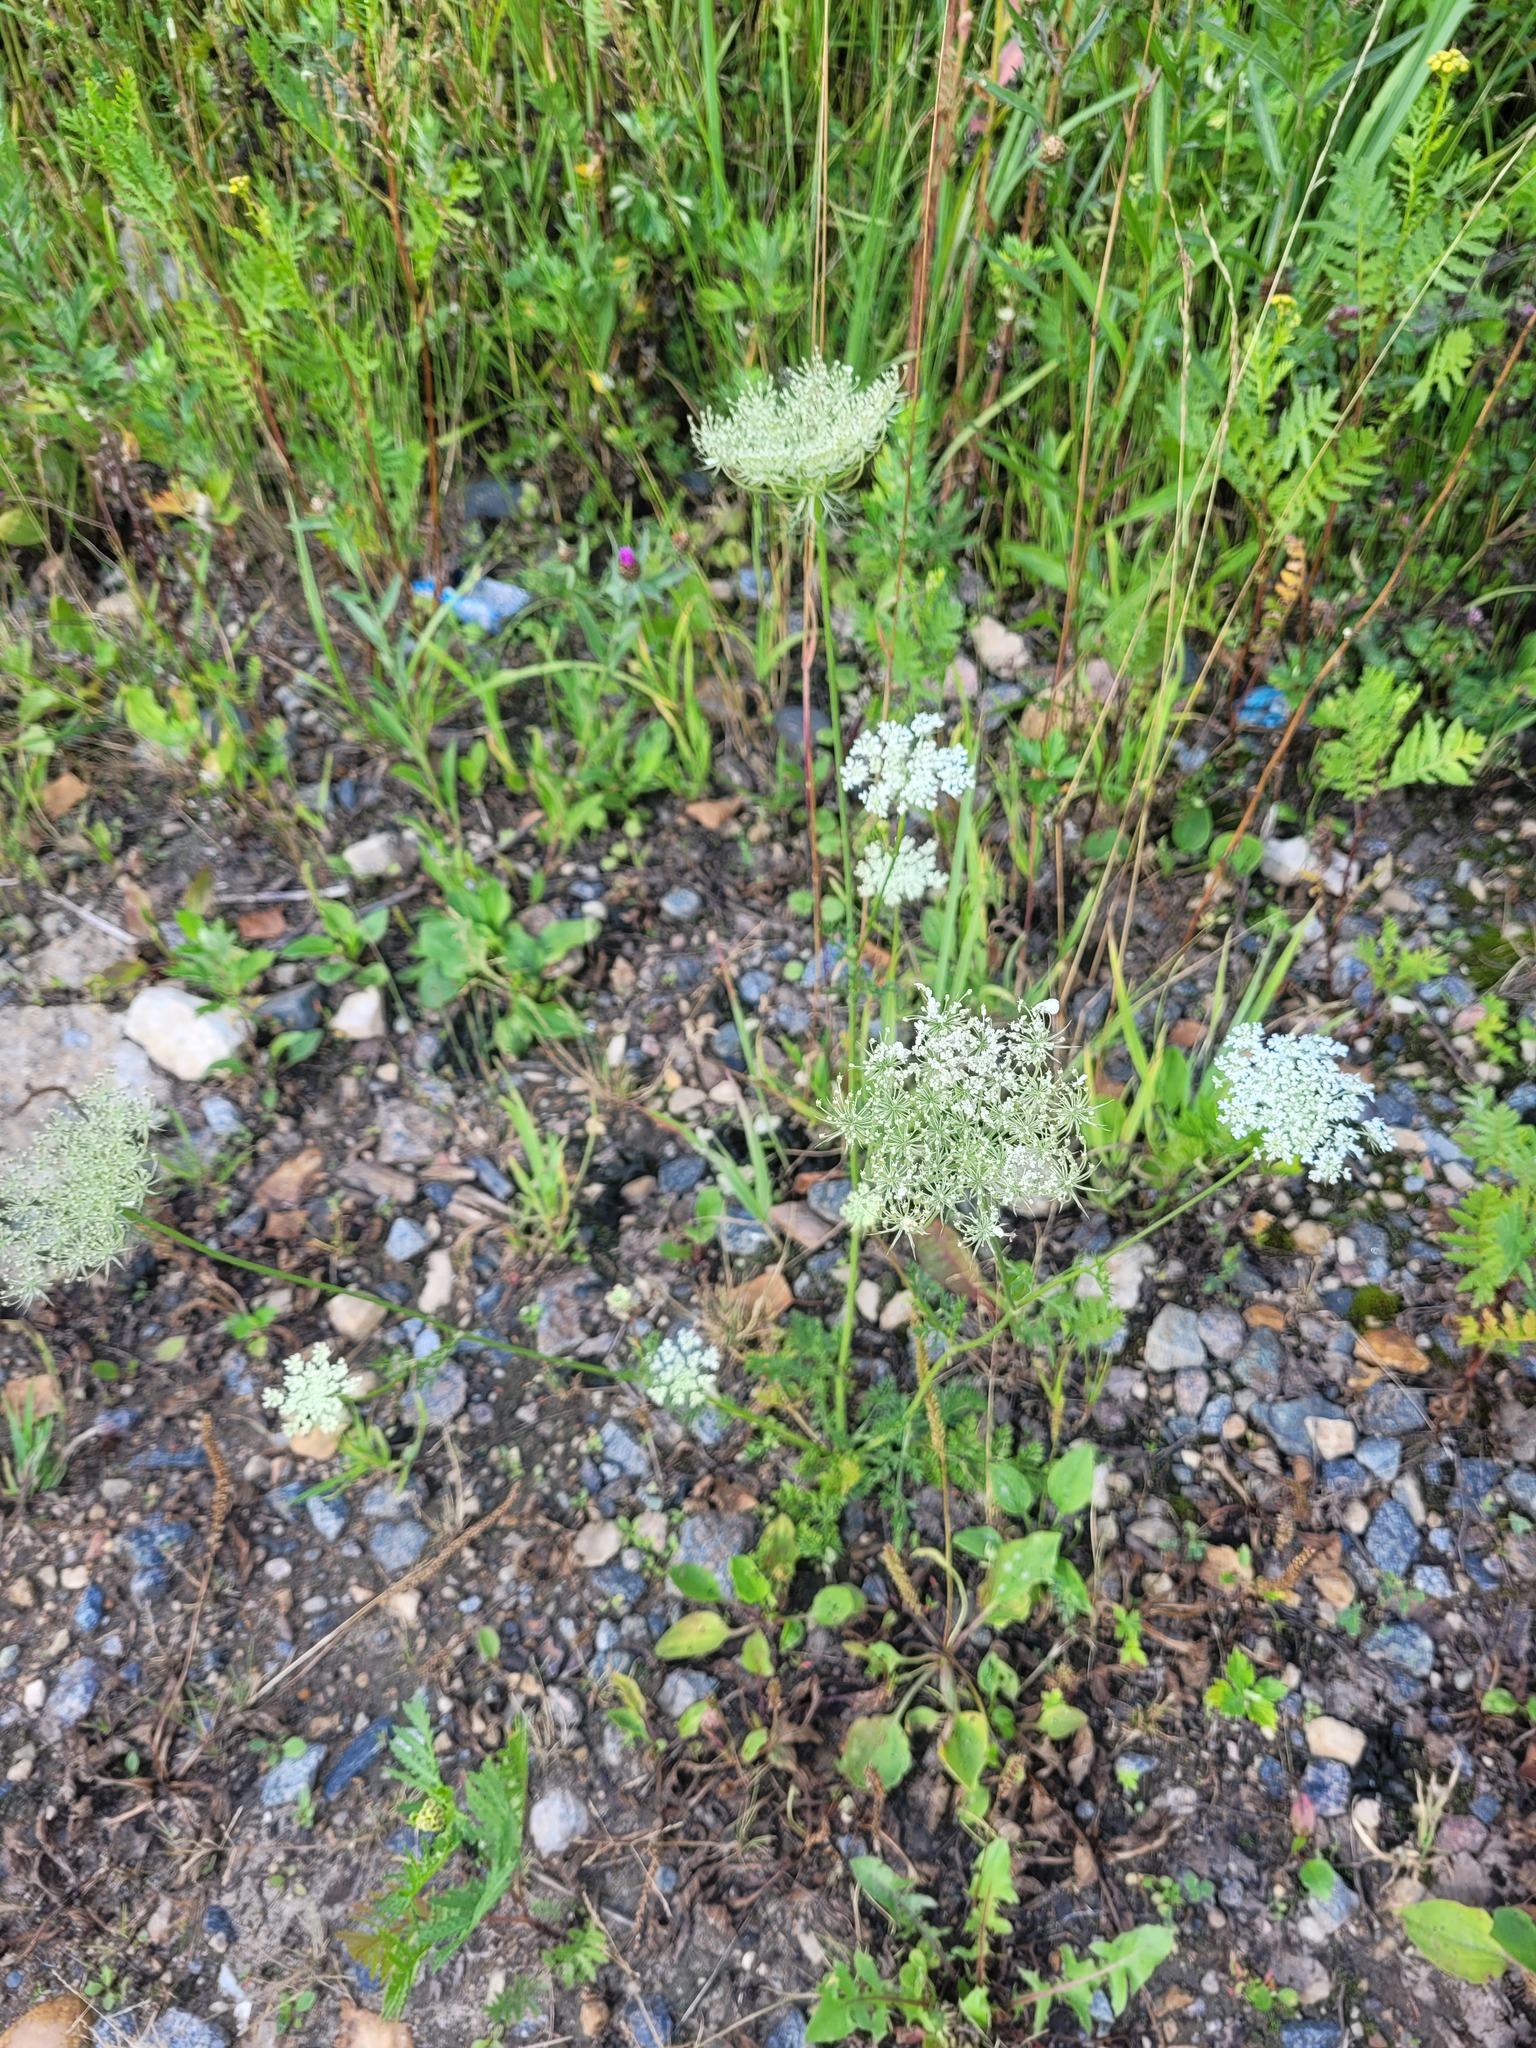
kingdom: Plantae
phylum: Tracheophyta
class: Magnoliopsida
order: Apiales
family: Apiaceae
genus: Daucus
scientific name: Daucus carota
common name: Wild carrot
